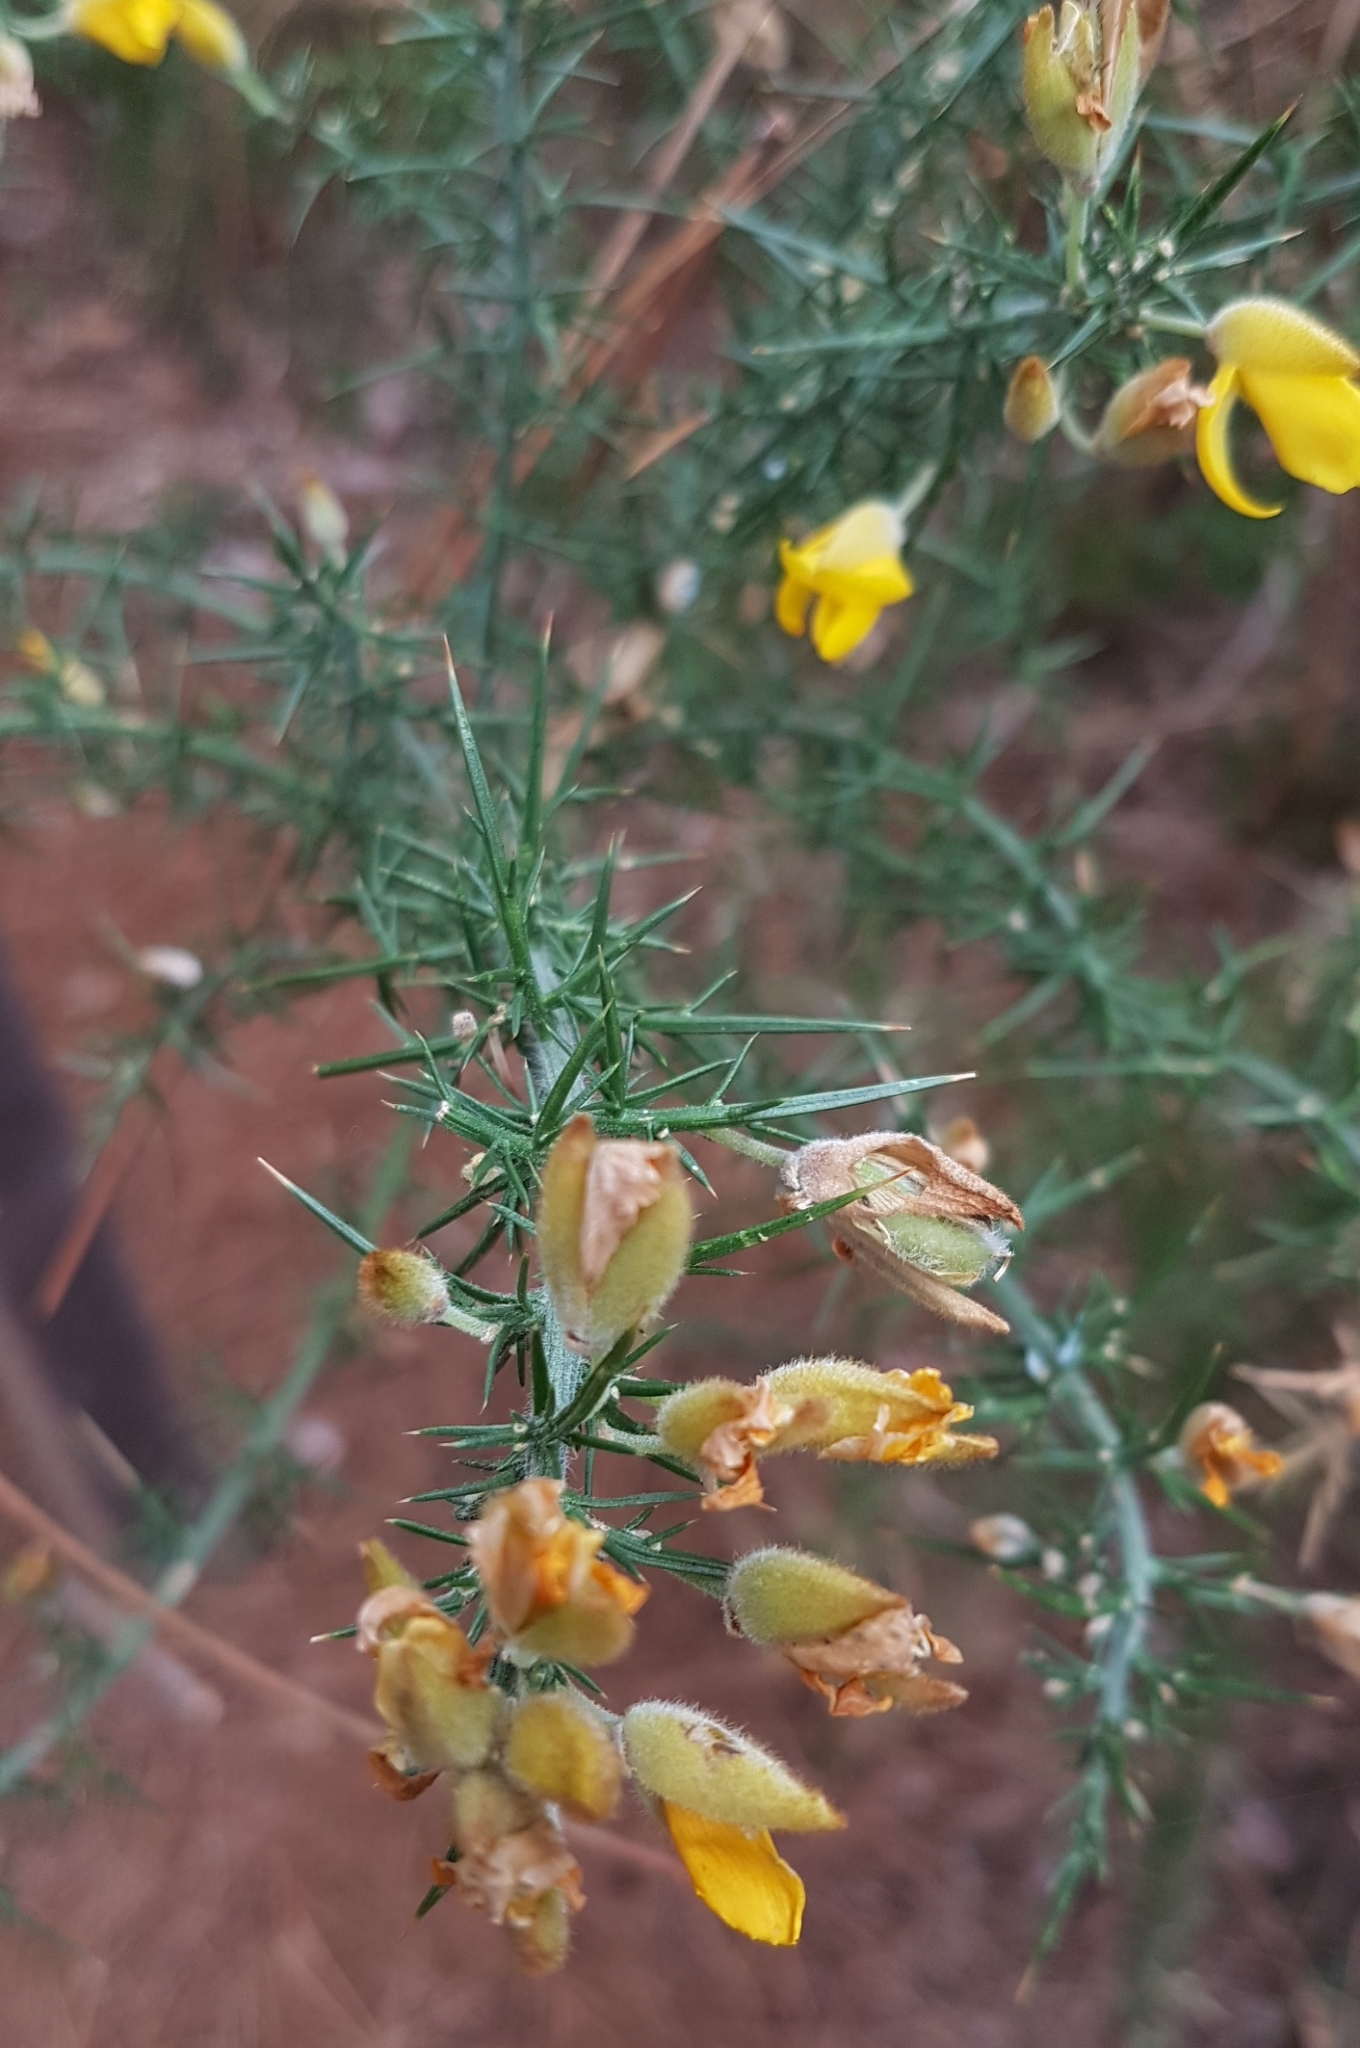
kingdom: Plantae
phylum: Tracheophyta
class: Magnoliopsida
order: Fabales
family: Fabaceae
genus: Ulex
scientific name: Ulex europaeus
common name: Common gorse
